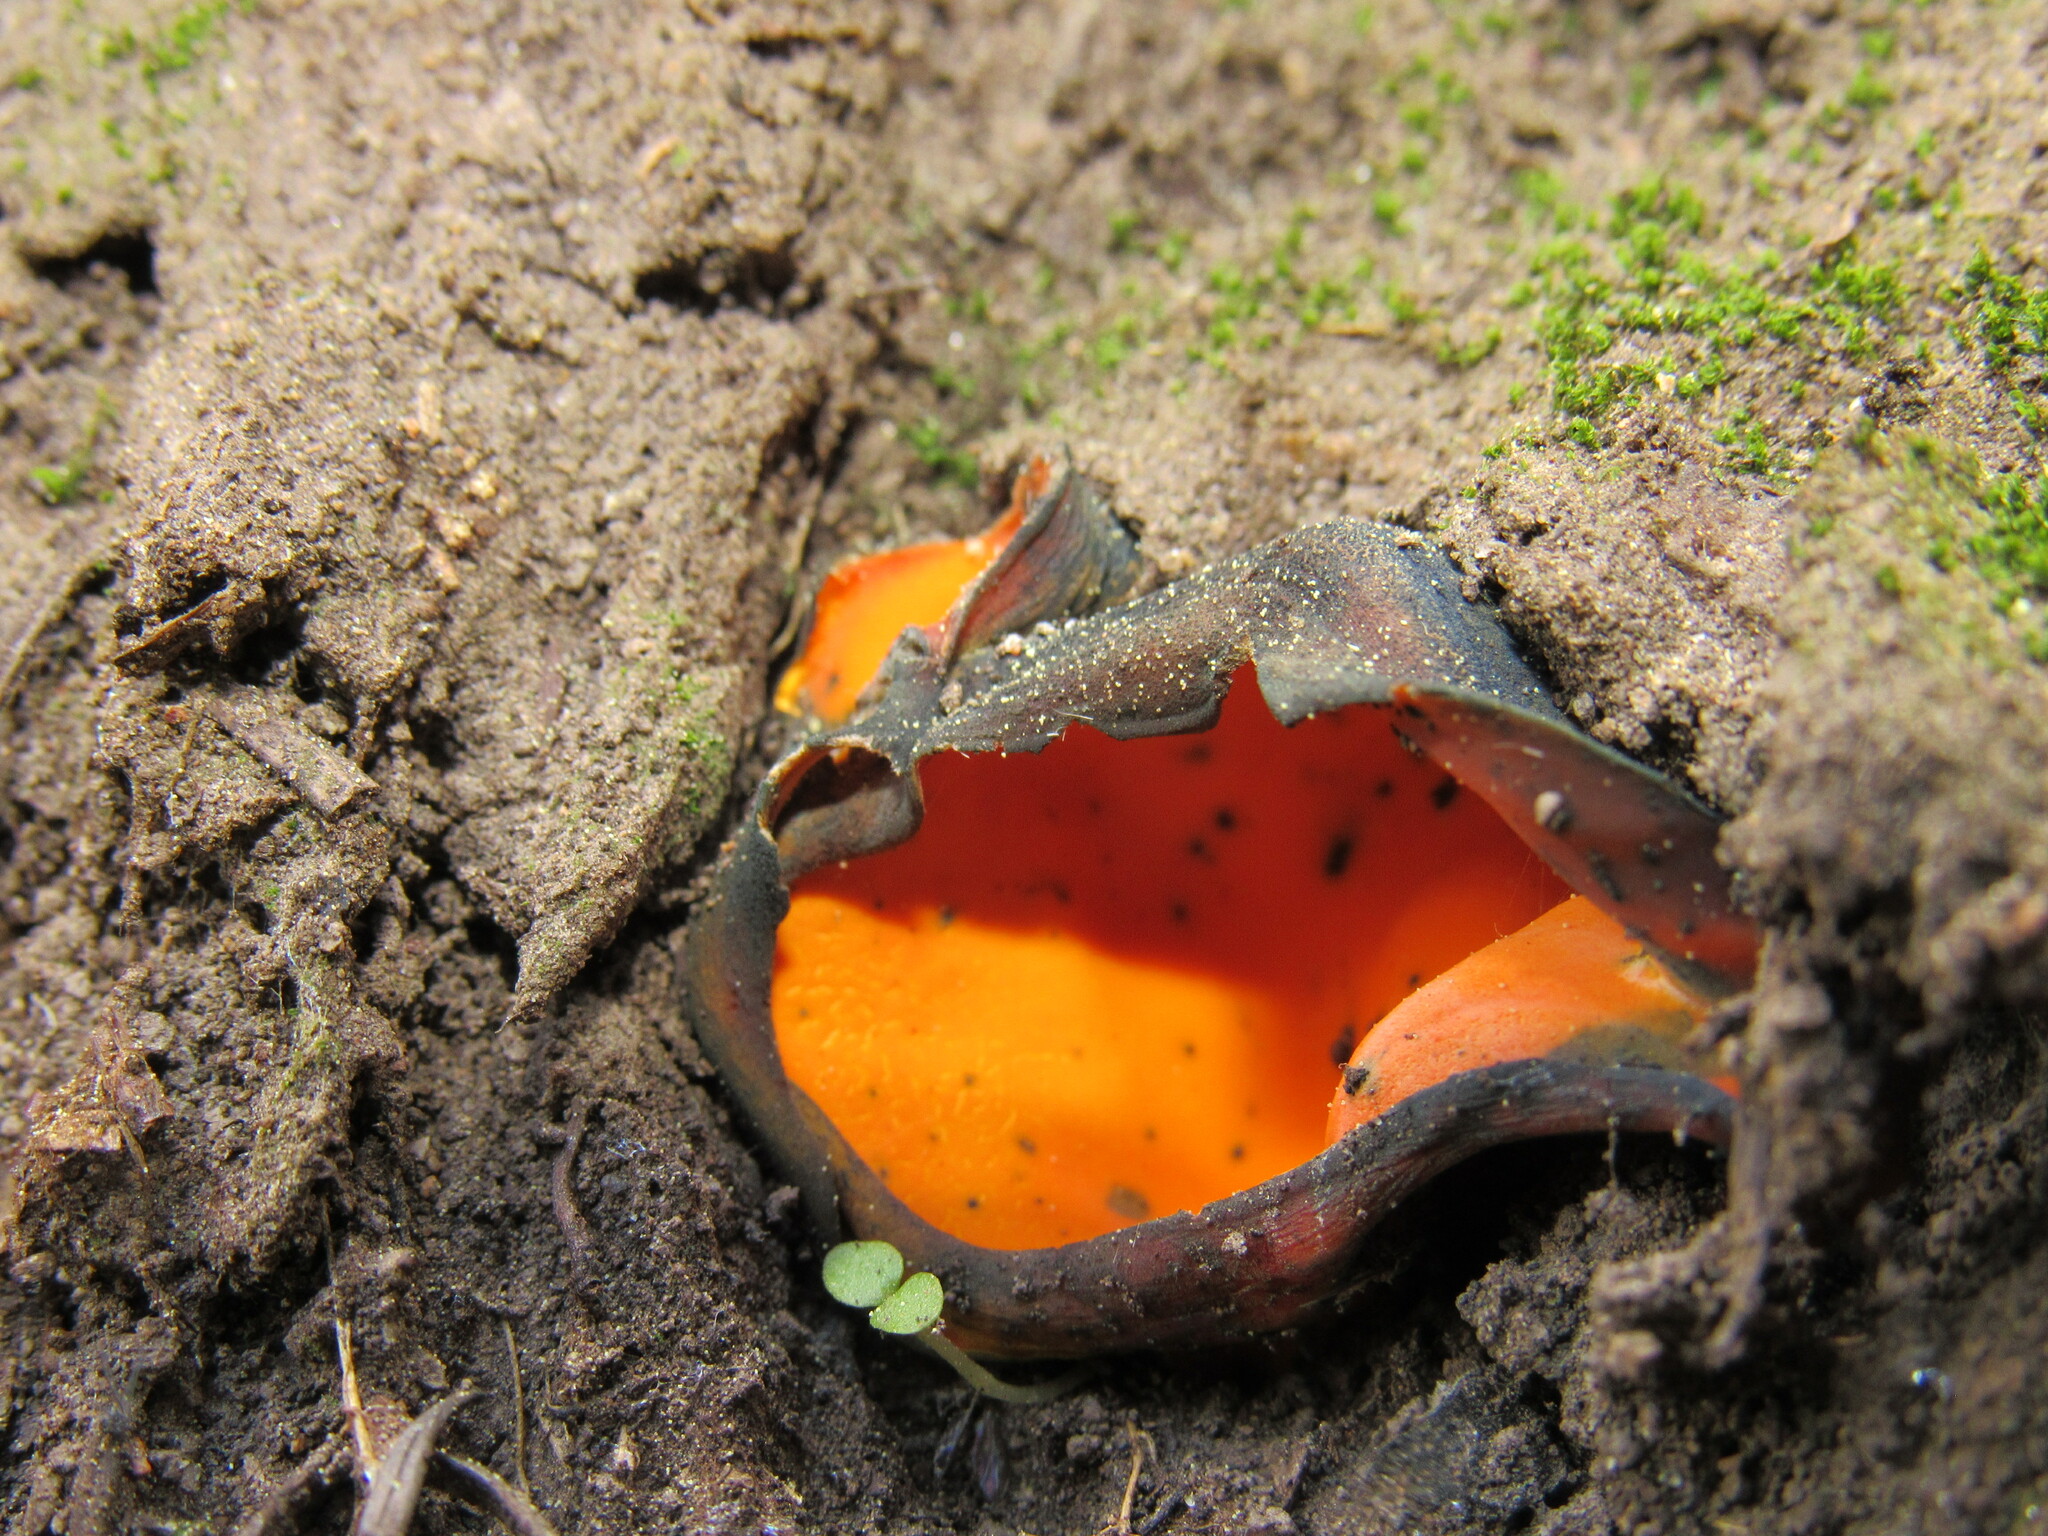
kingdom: Fungi
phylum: Ascomycota
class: Pezizomycetes
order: Pezizales
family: Caloscyphaceae
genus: Caloscypha
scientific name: Caloscypha fulgens
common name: Golden cup
